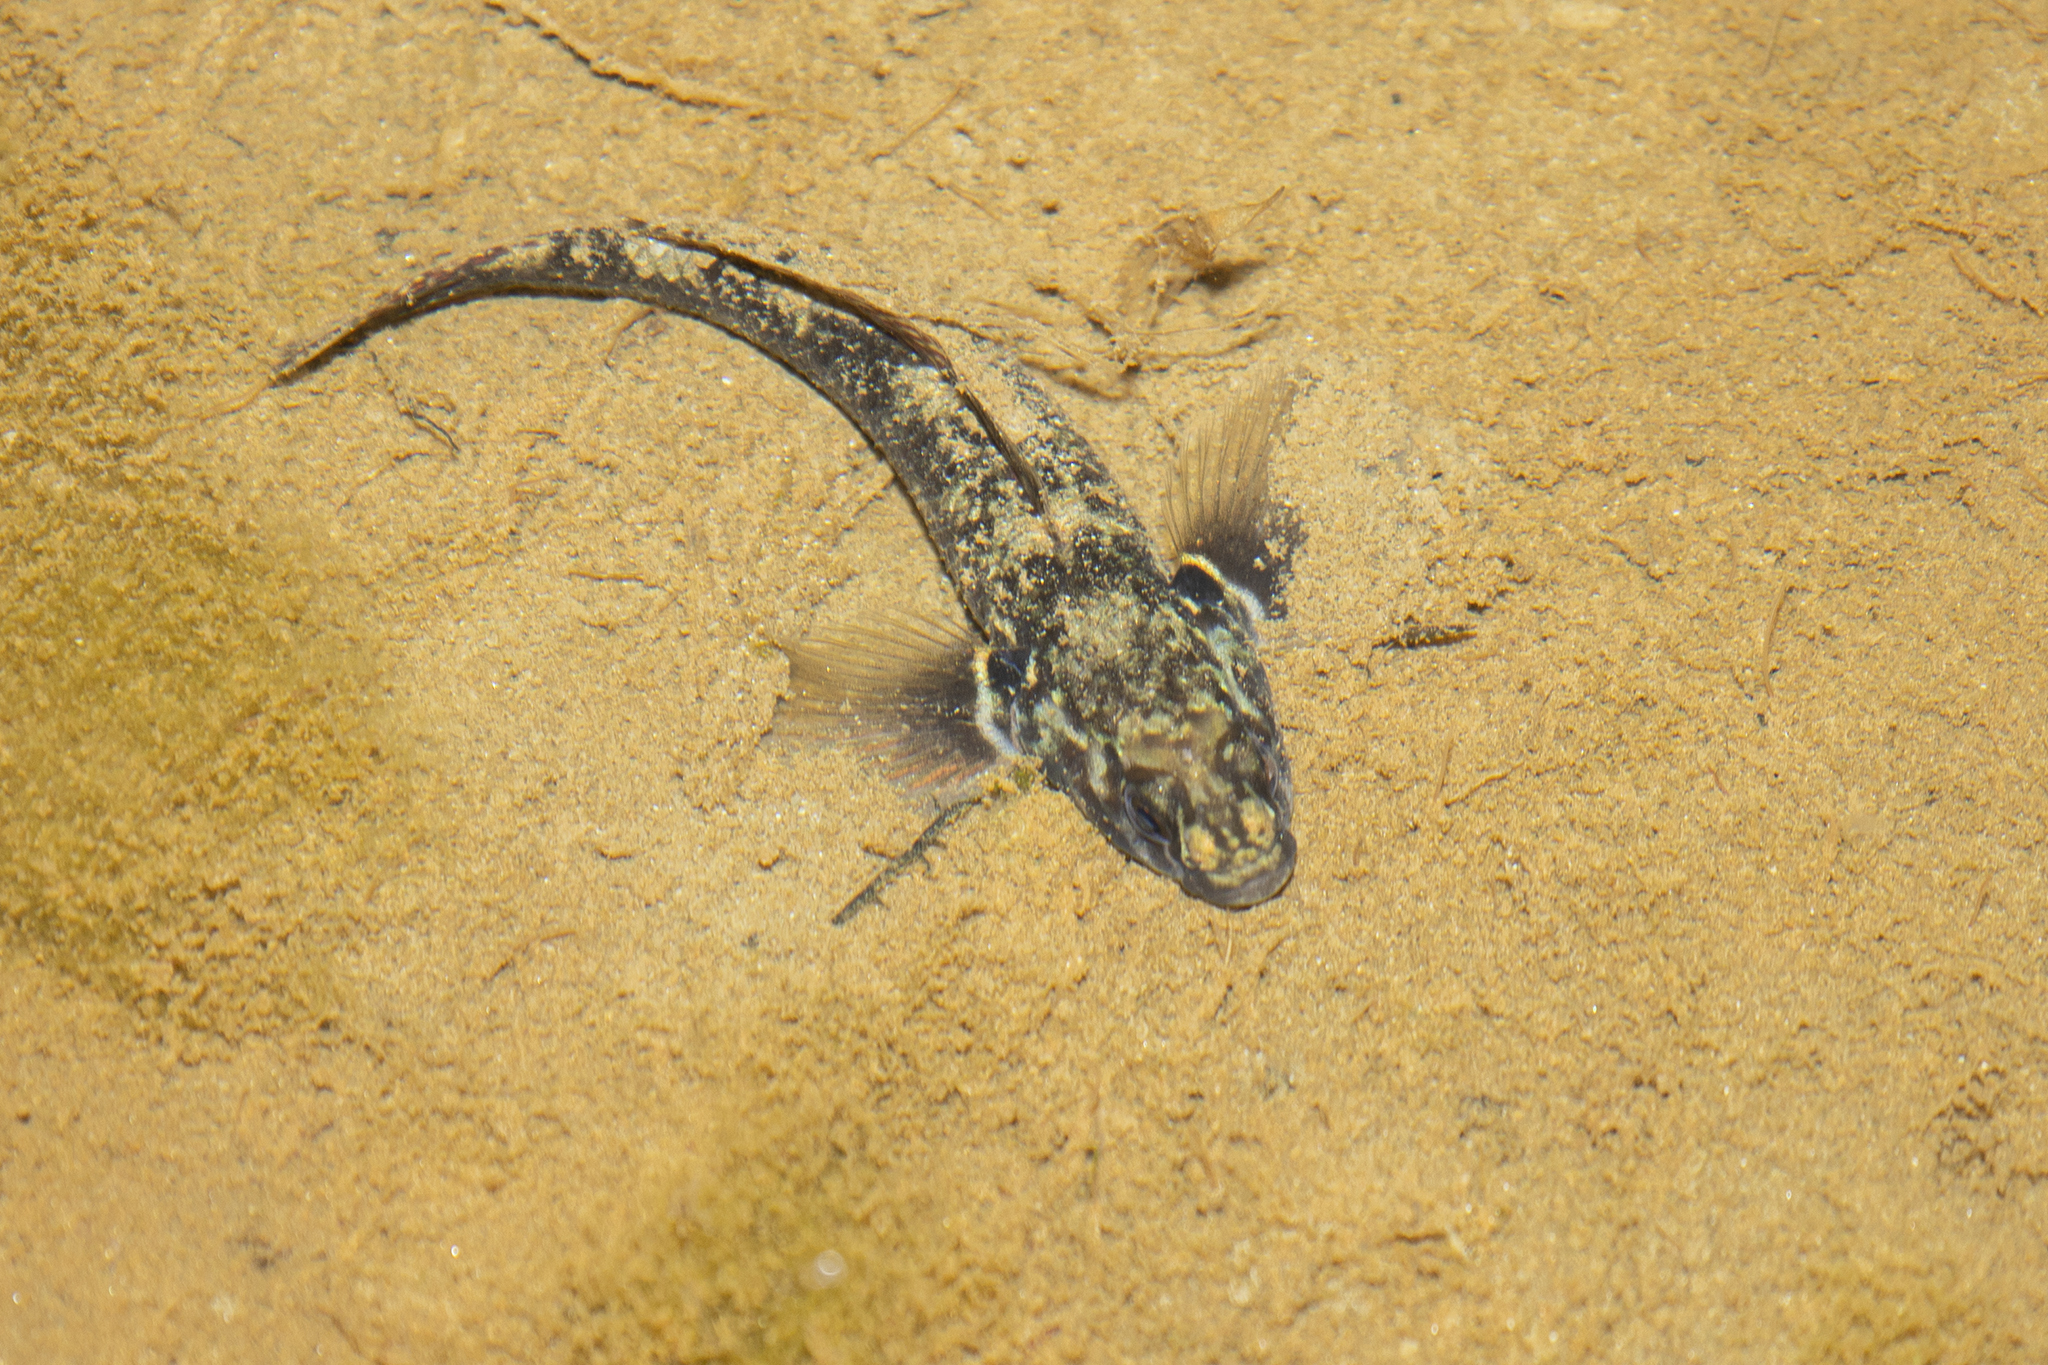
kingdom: Animalia
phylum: Chordata
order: Perciformes
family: Eleotridae
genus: Gobiomorphus
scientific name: Gobiomorphus huttoni
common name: Redfin bully
